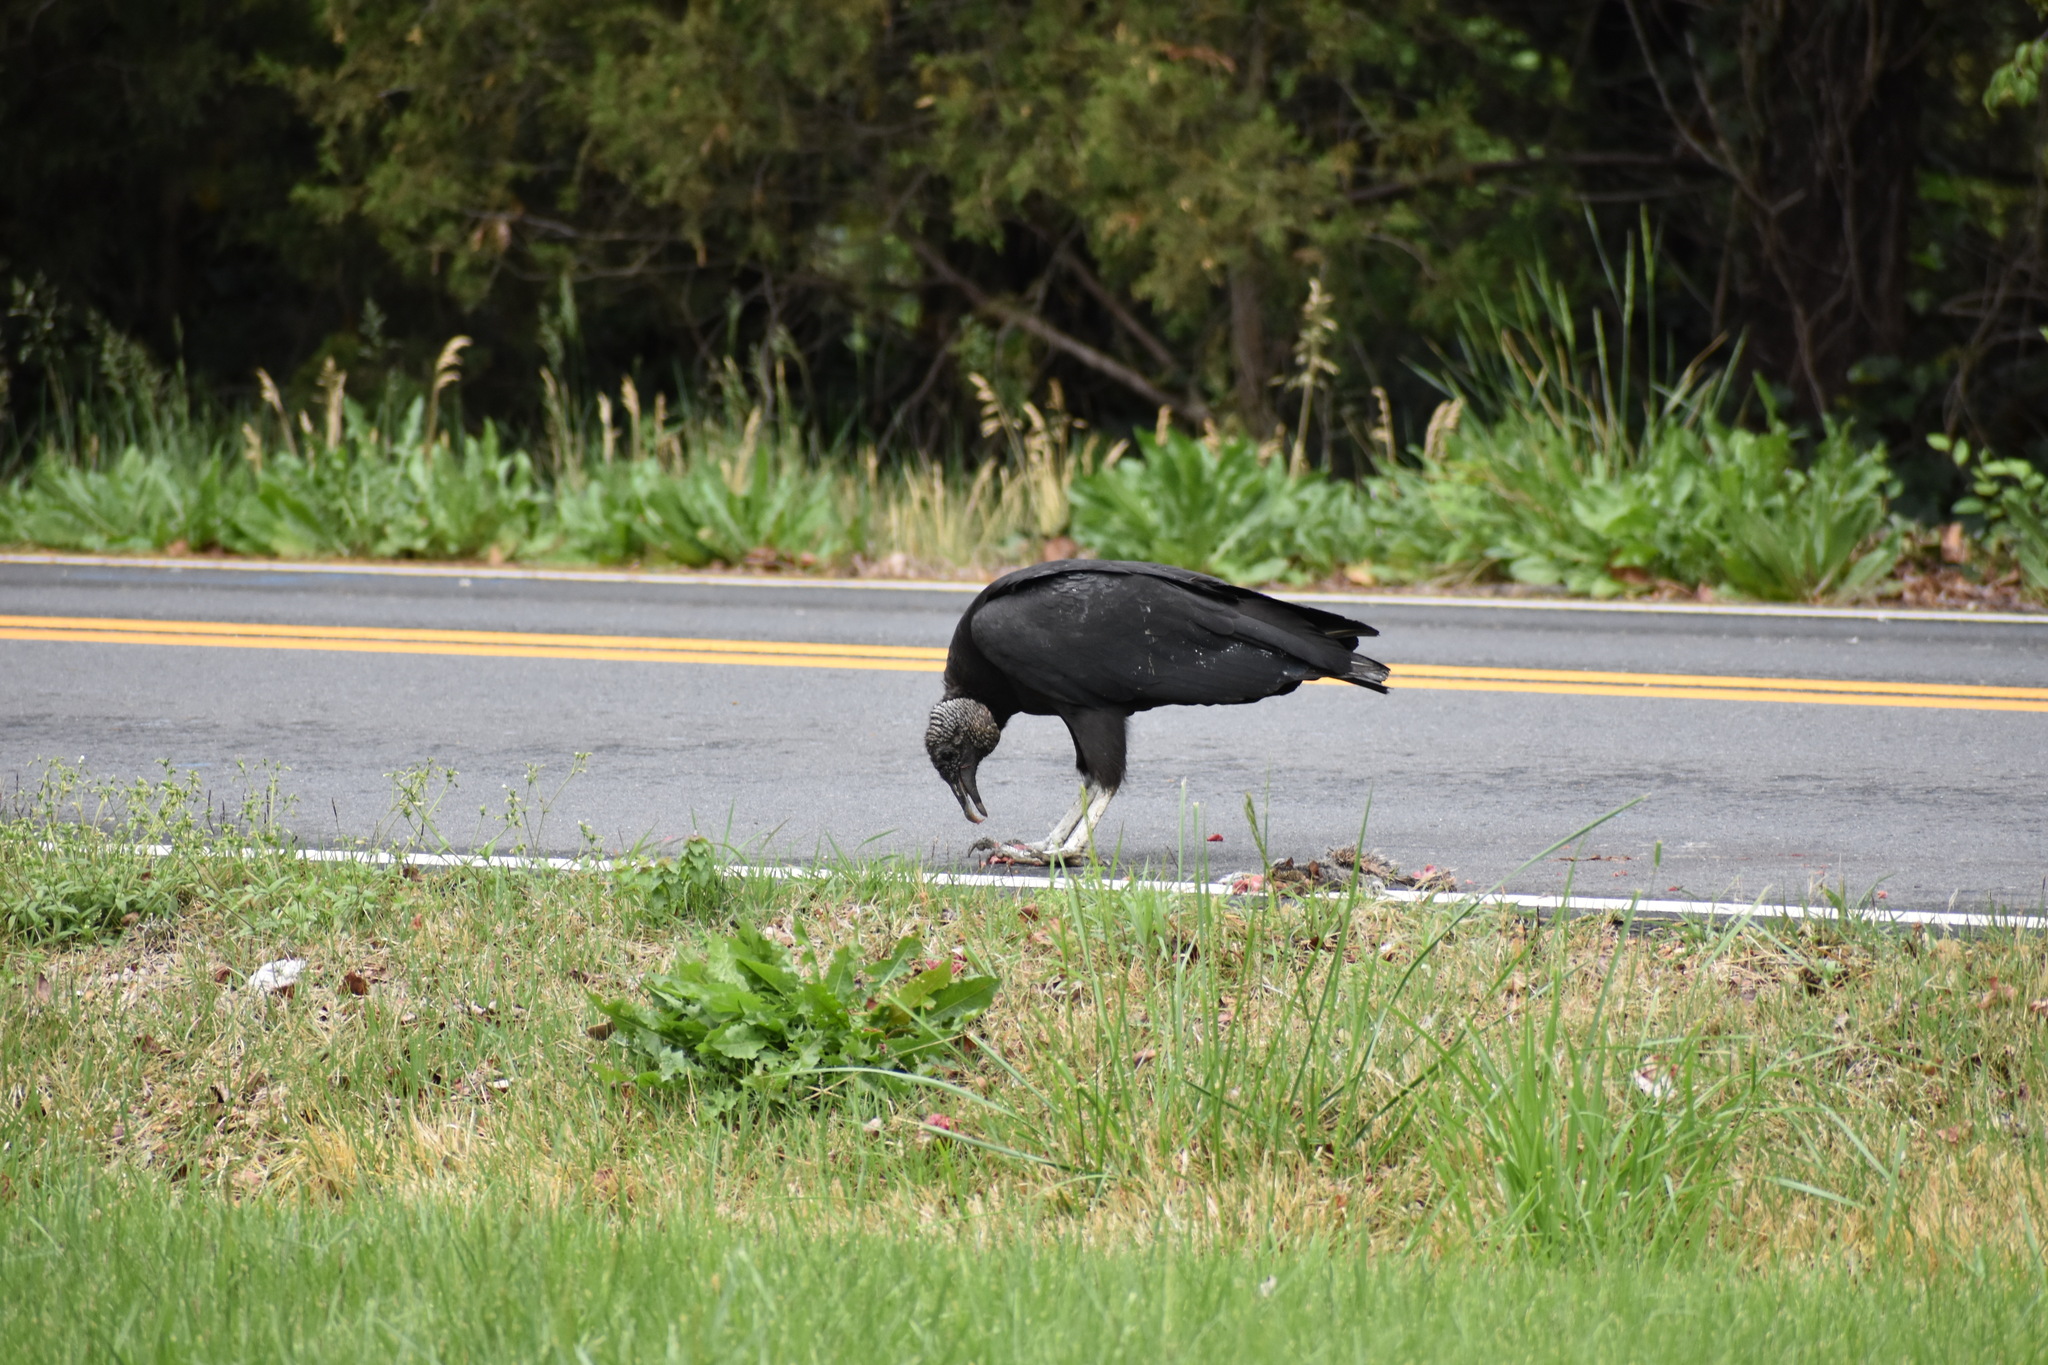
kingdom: Animalia
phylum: Chordata
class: Aves
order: Accipitriformes
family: Cathartidae
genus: Coragyps
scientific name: Coragyps atratus
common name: Black vulture
